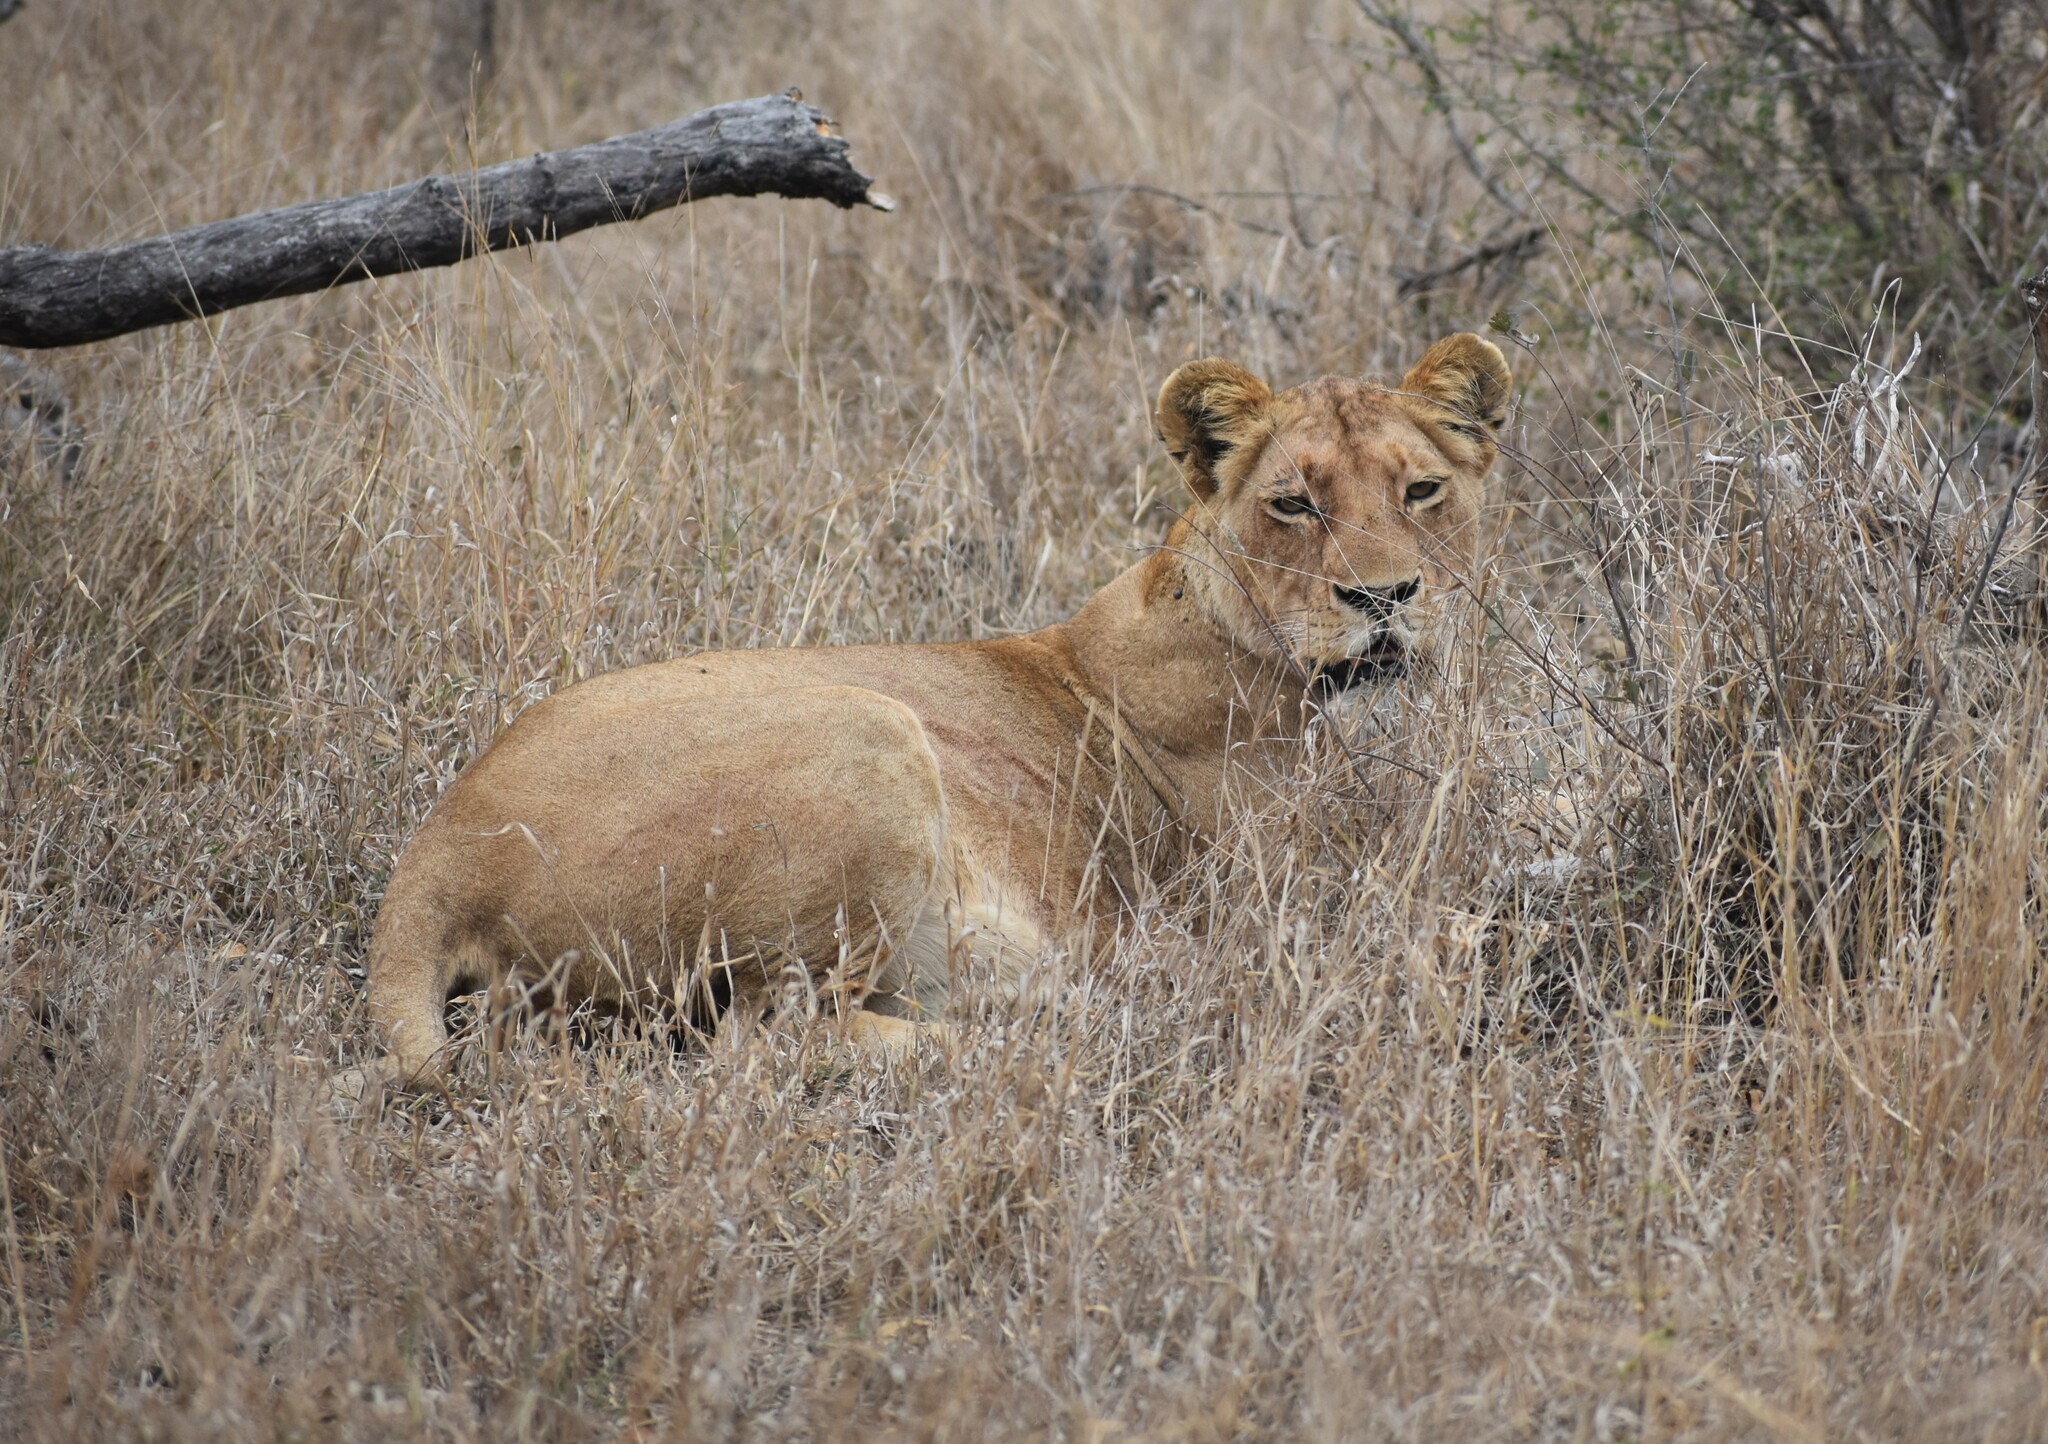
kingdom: Animalia
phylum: Chordata
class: Mammalia
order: Carnivora
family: Felidae
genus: Panthera
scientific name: Panthera leo
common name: Lion
